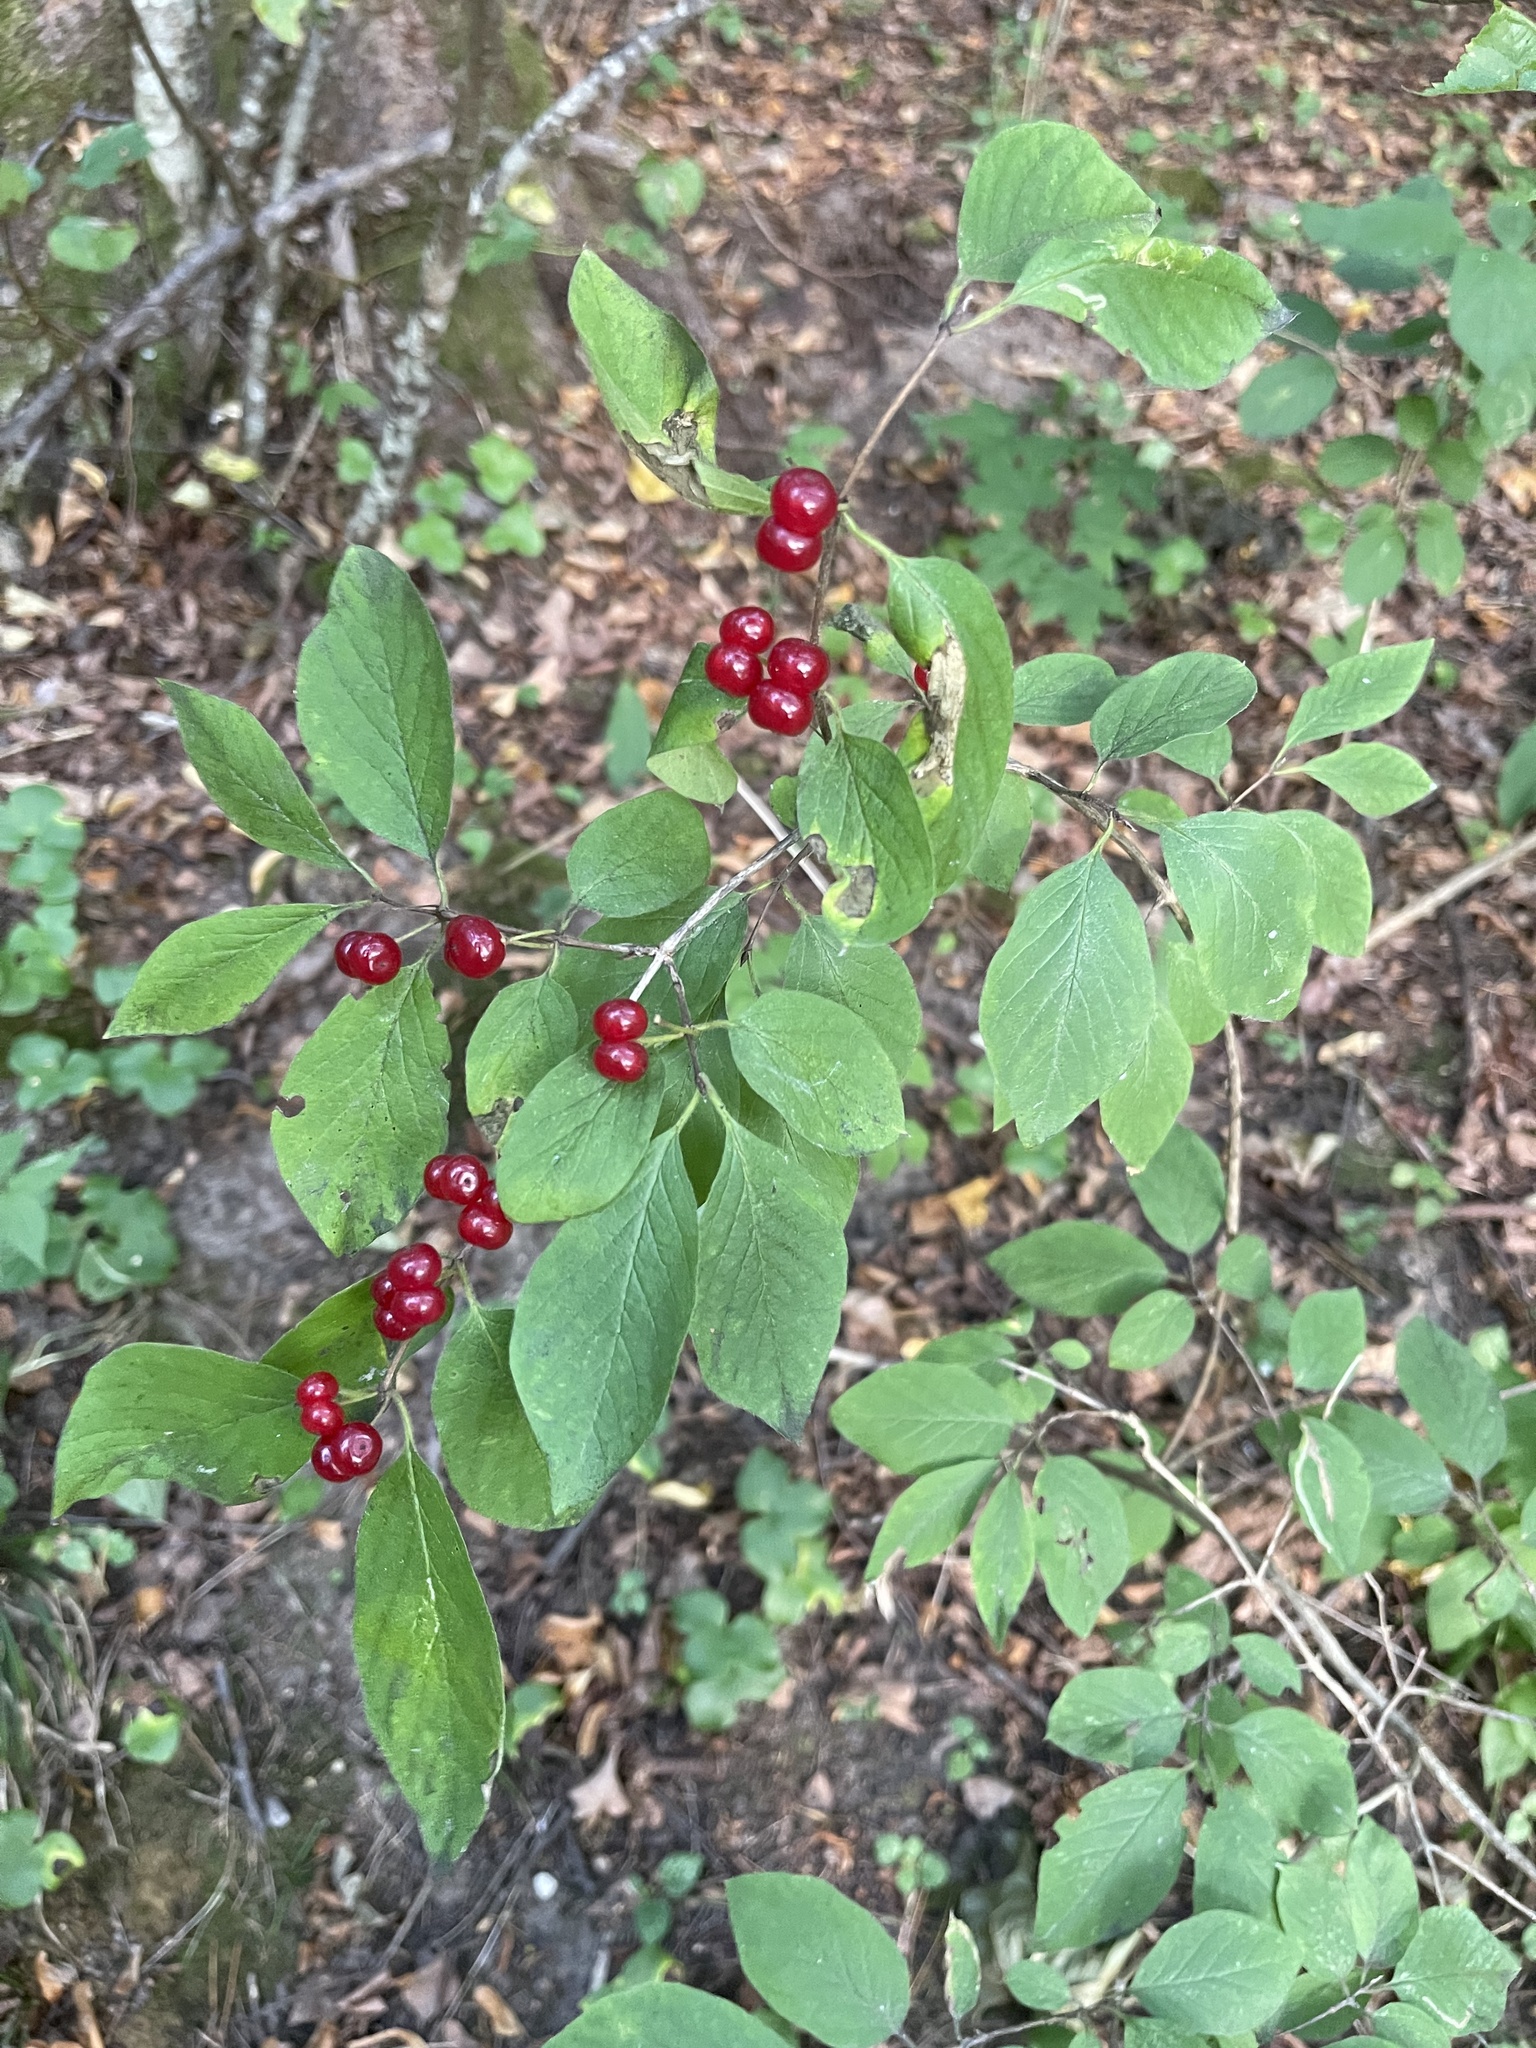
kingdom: Plantae
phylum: Tracheophyta
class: Magnoliopsida
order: Dipsacales
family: Caprifoliaceae
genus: Lonicera
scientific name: Lonicera xylosteum
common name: Fly honeysuckle
